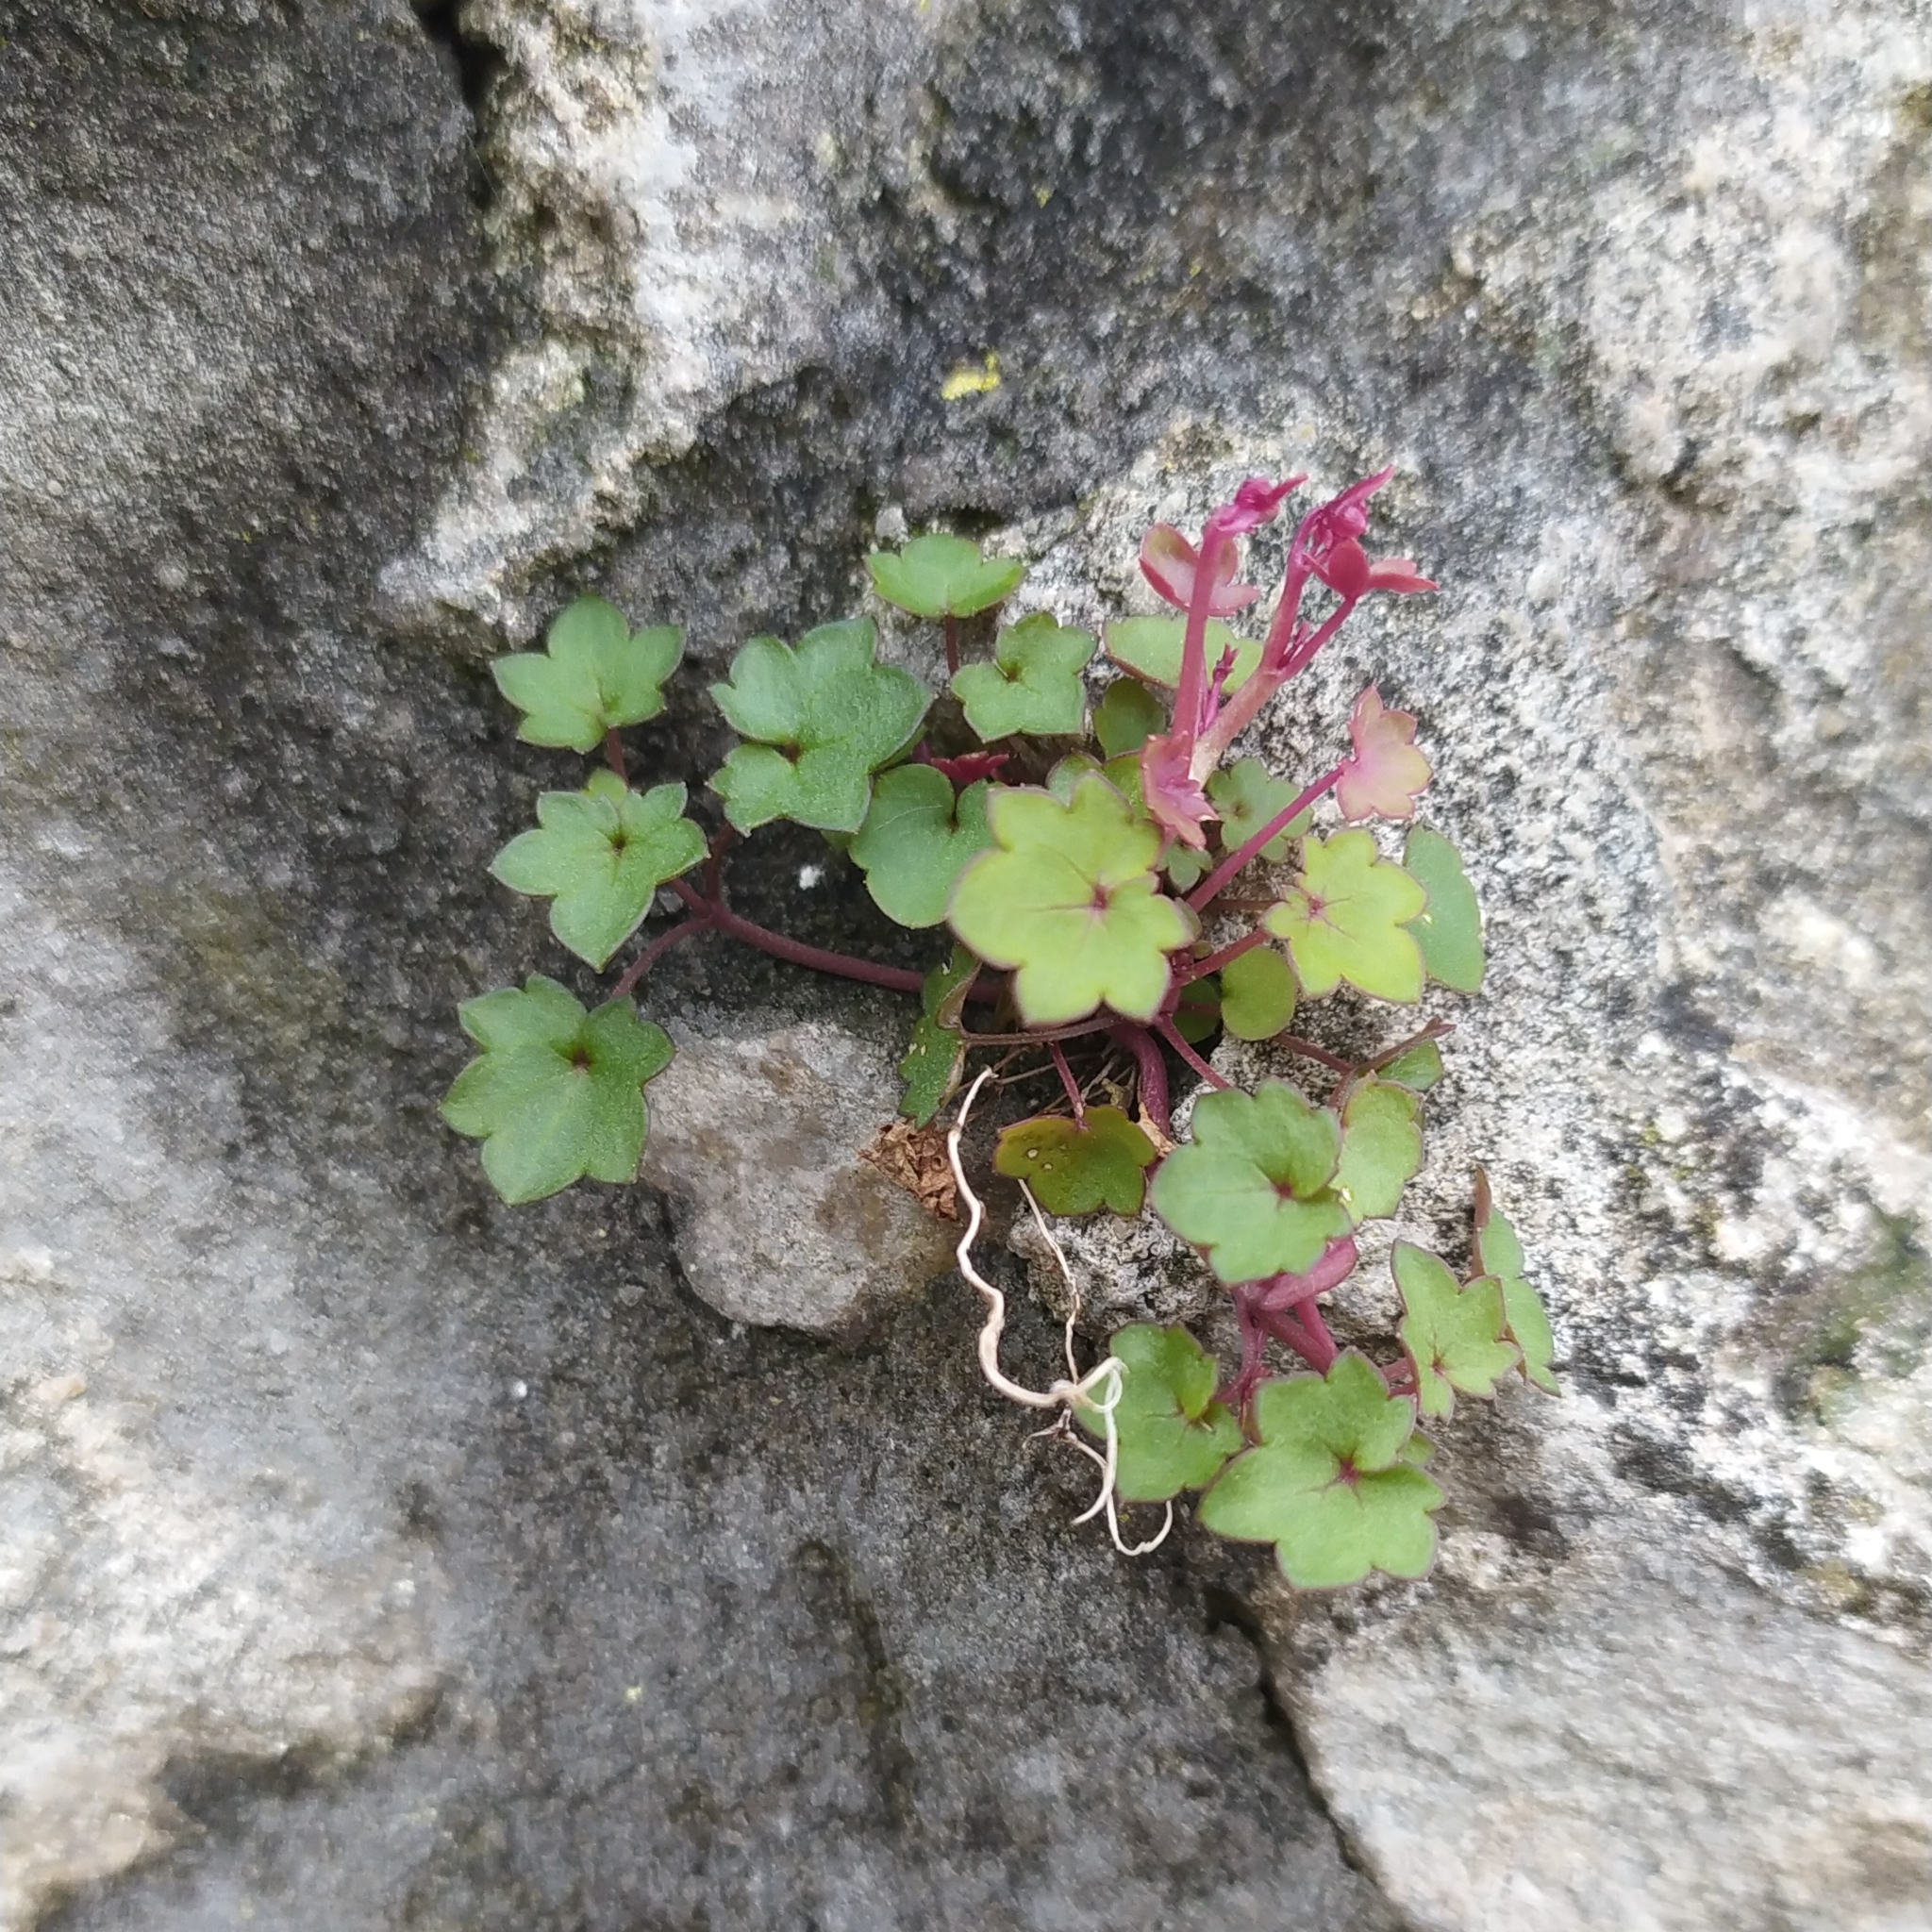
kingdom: Plantae
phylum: Tracheophyta
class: Magnoliopsida
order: Lamiales
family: Plantaginaceae
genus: Cymbalaria
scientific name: Cymbalaria muralis
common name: Ivy-leaved toadflax
